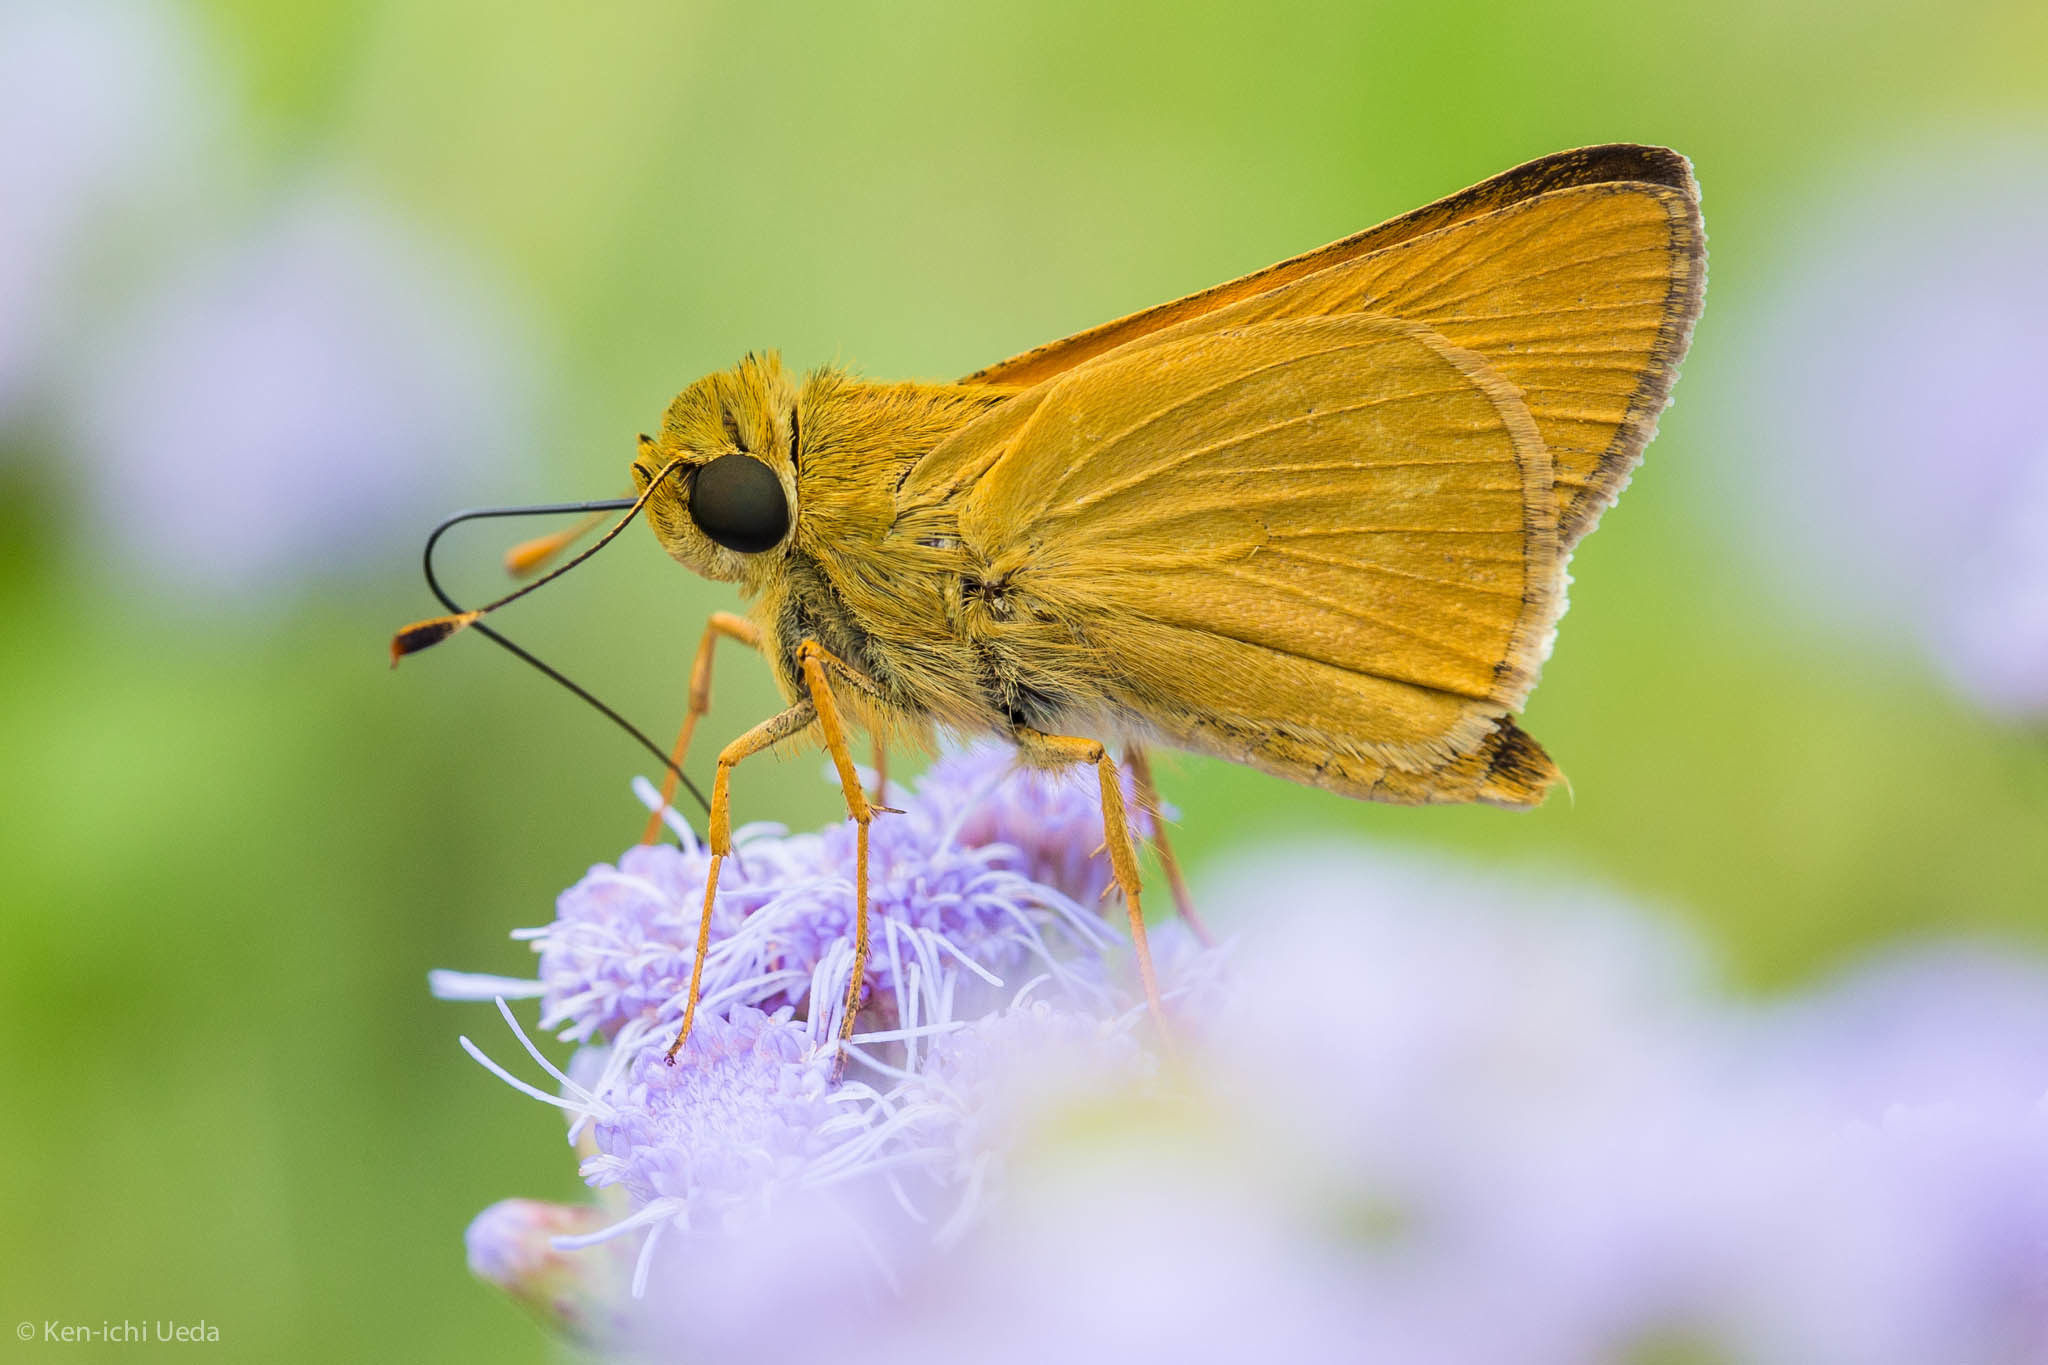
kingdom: Animalia
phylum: Arthropoda
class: Insecta
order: Lepidoptera
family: Hesperiidae
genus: Mellana
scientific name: Mellana eulogius
